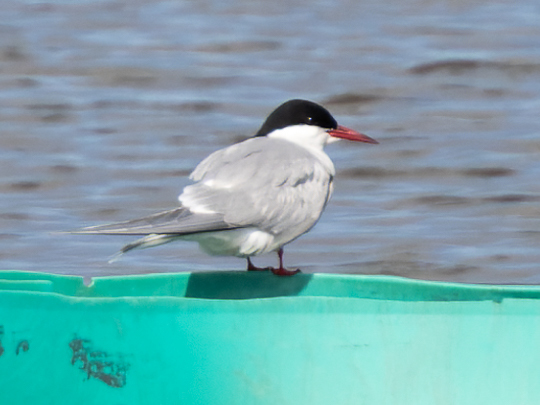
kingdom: Animalia
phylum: Chordata
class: Aves
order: Charadriiformes
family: Laridae
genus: Sterna
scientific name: Sterna paradisaea
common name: Arctic tern
